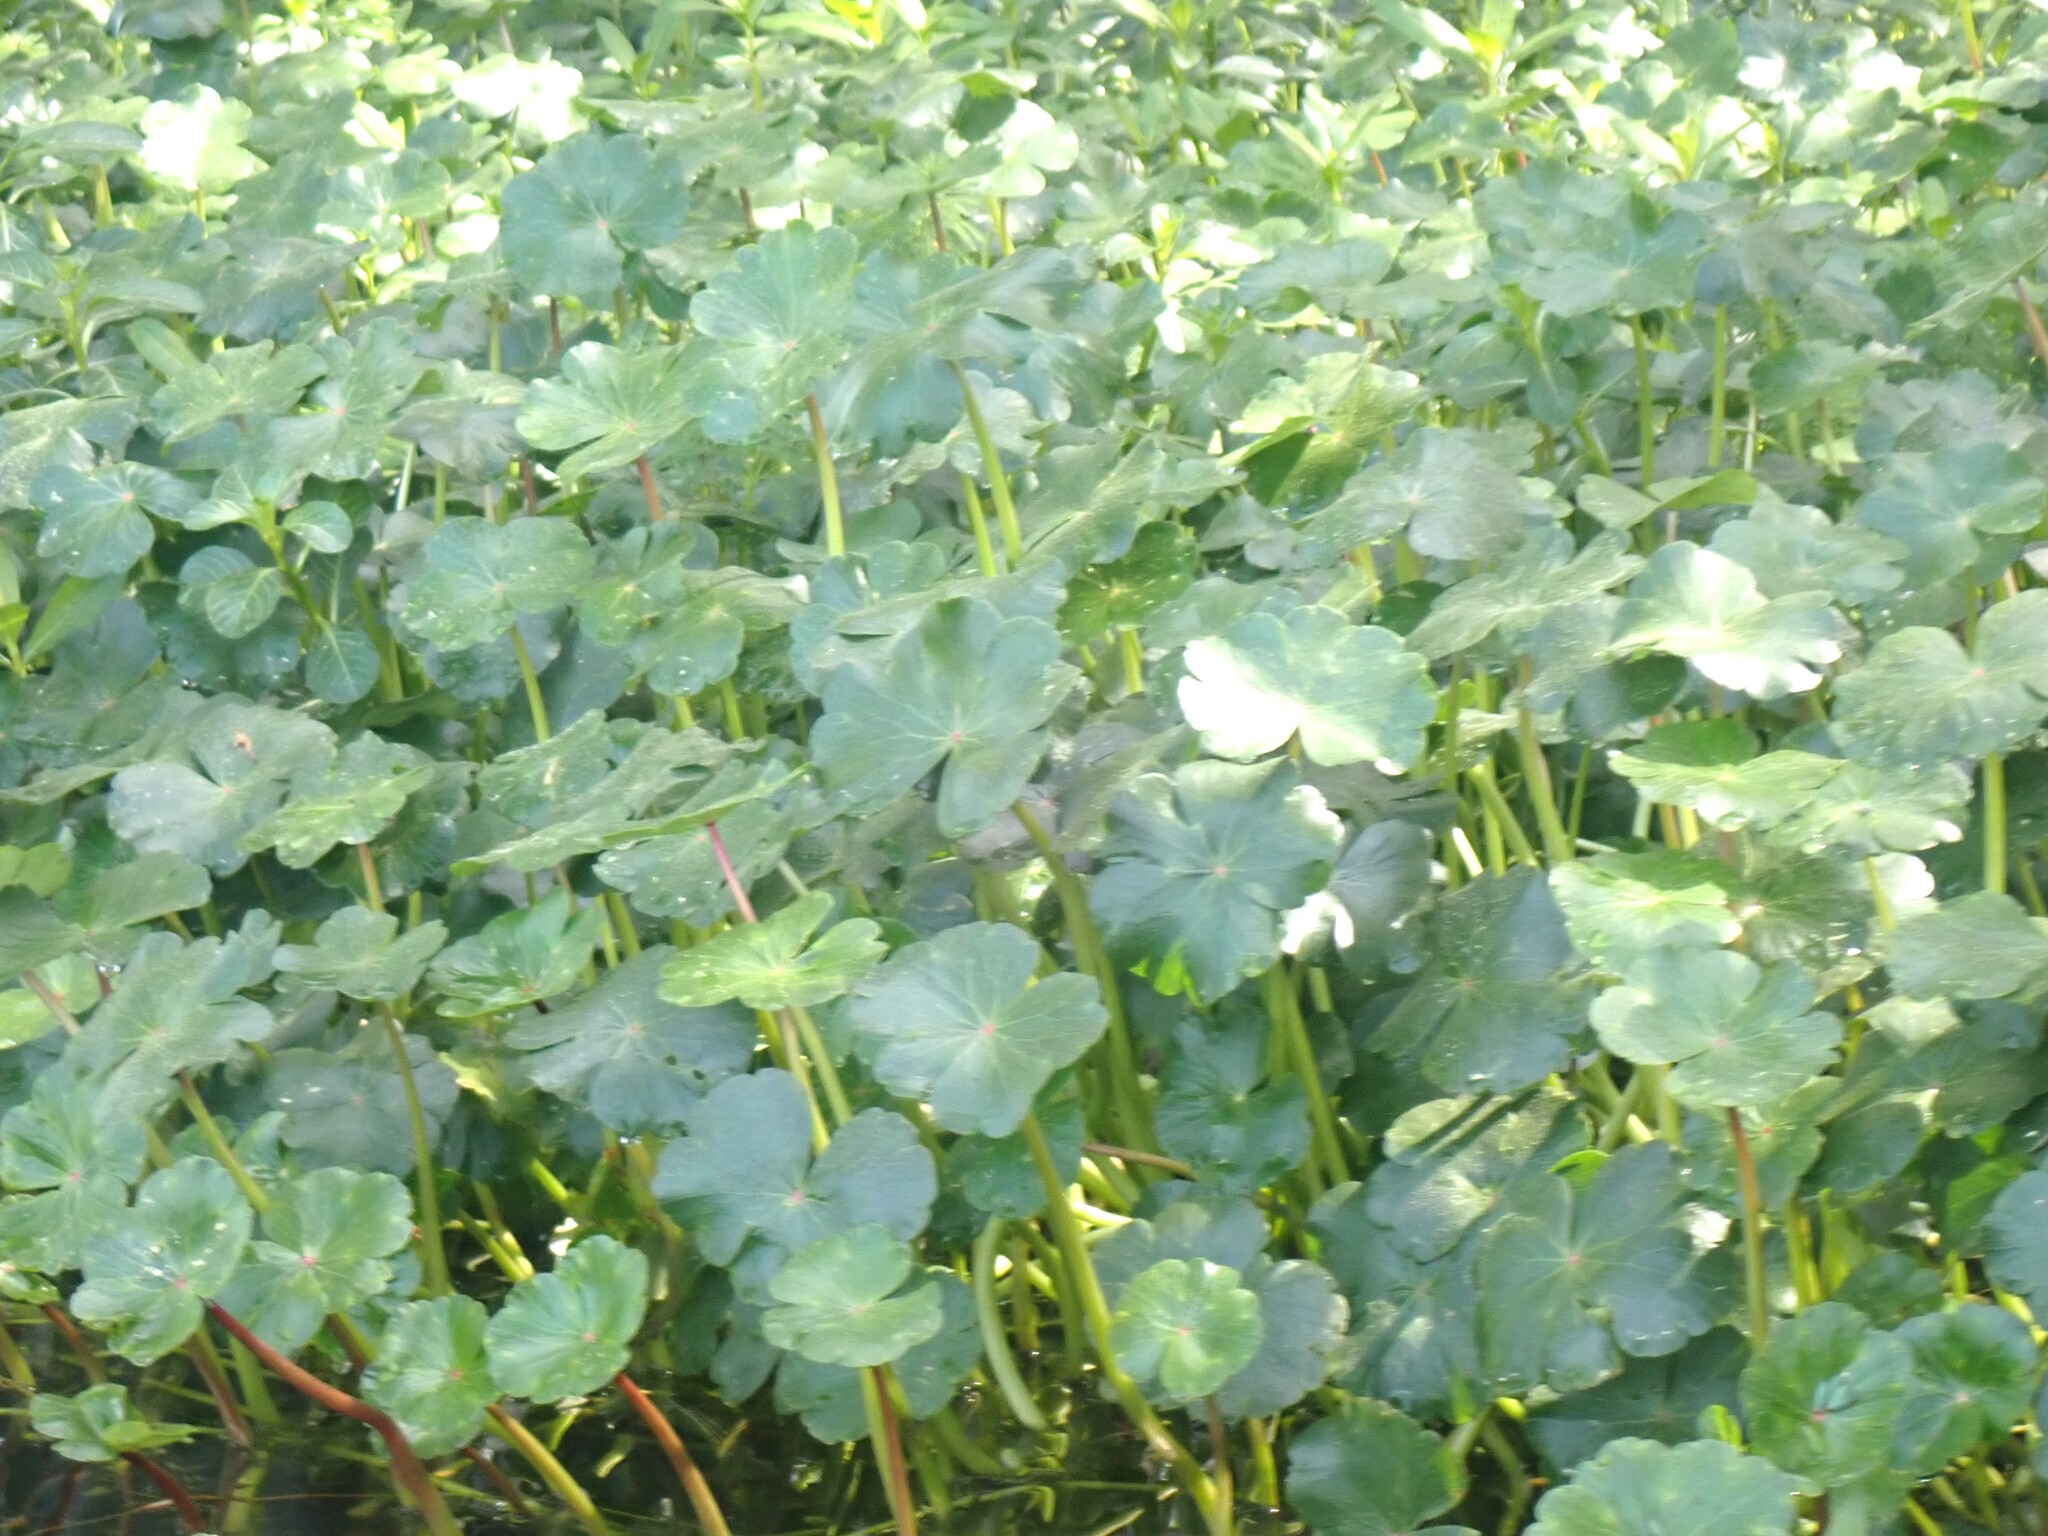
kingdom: Plantae
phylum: Tracheophyta
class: Magnoliopsida
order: Apiales
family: Araliaceae
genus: Hydrocotyle
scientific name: Hydrocotyle ranunculoides
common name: Floating pennywort
